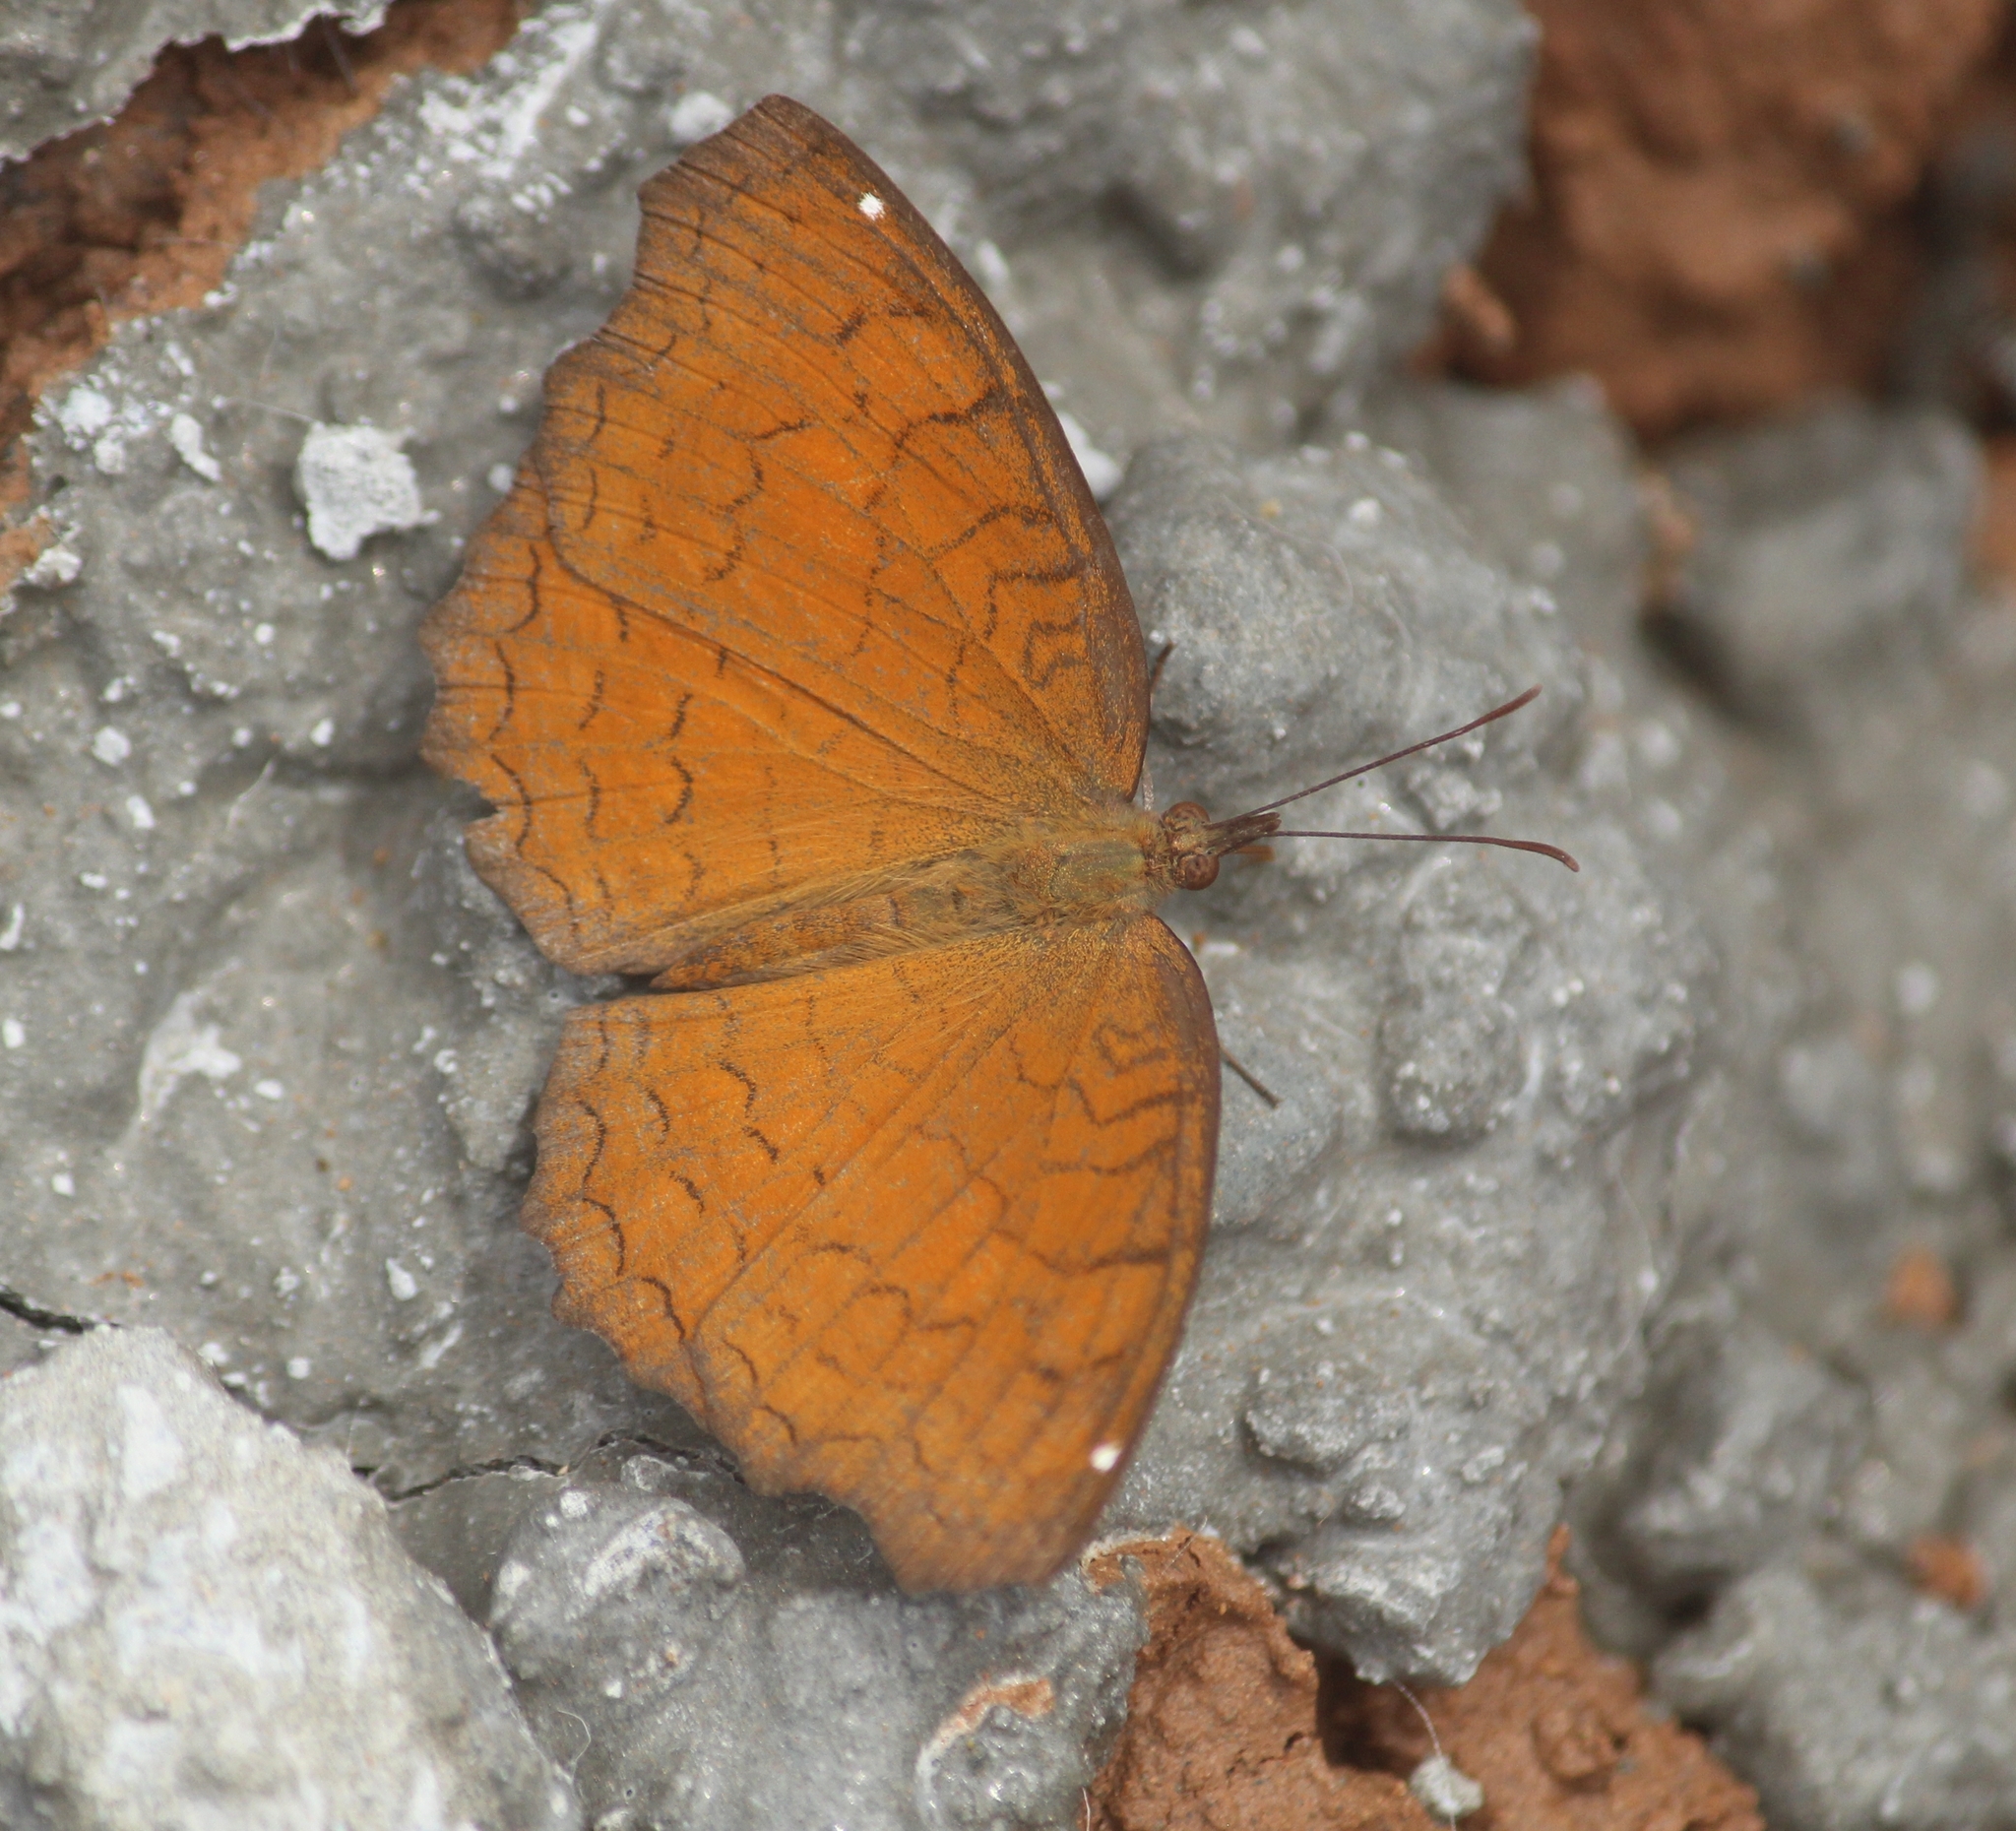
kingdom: Animalia
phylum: Arthropoda
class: Insecta
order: Lepidoptera
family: Nymphalidae
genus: Ariadne
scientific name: Ariadne ariadne
